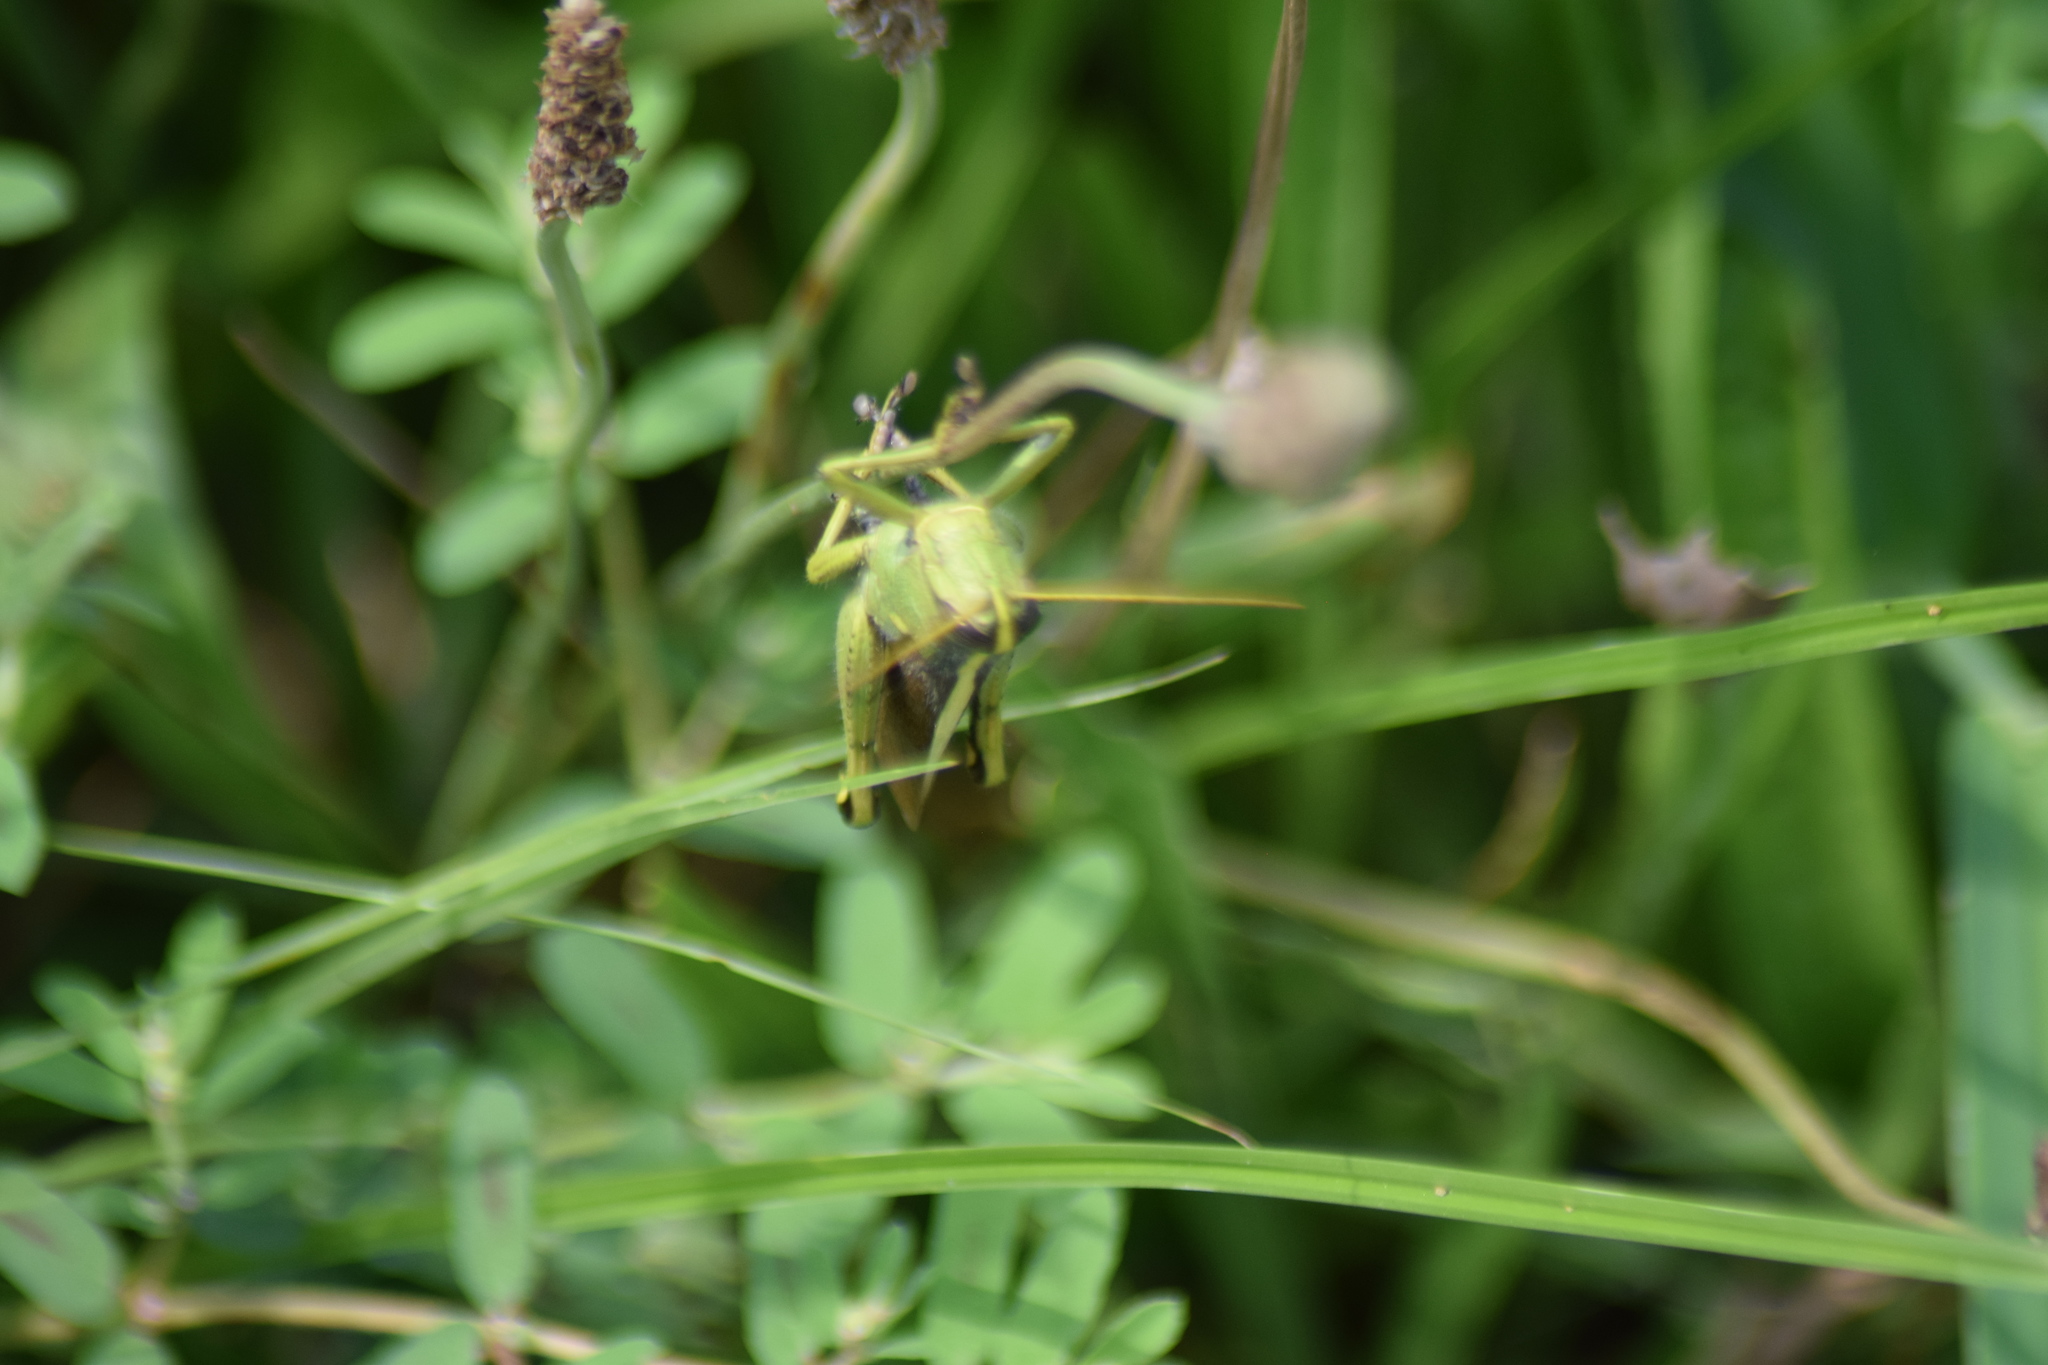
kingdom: Animalia
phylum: Arthropoda
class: Insecta
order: Orthoptera
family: Acrididae
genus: Schistocerca
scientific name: Schistocerca obscura
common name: Obscure bird grasshopper
